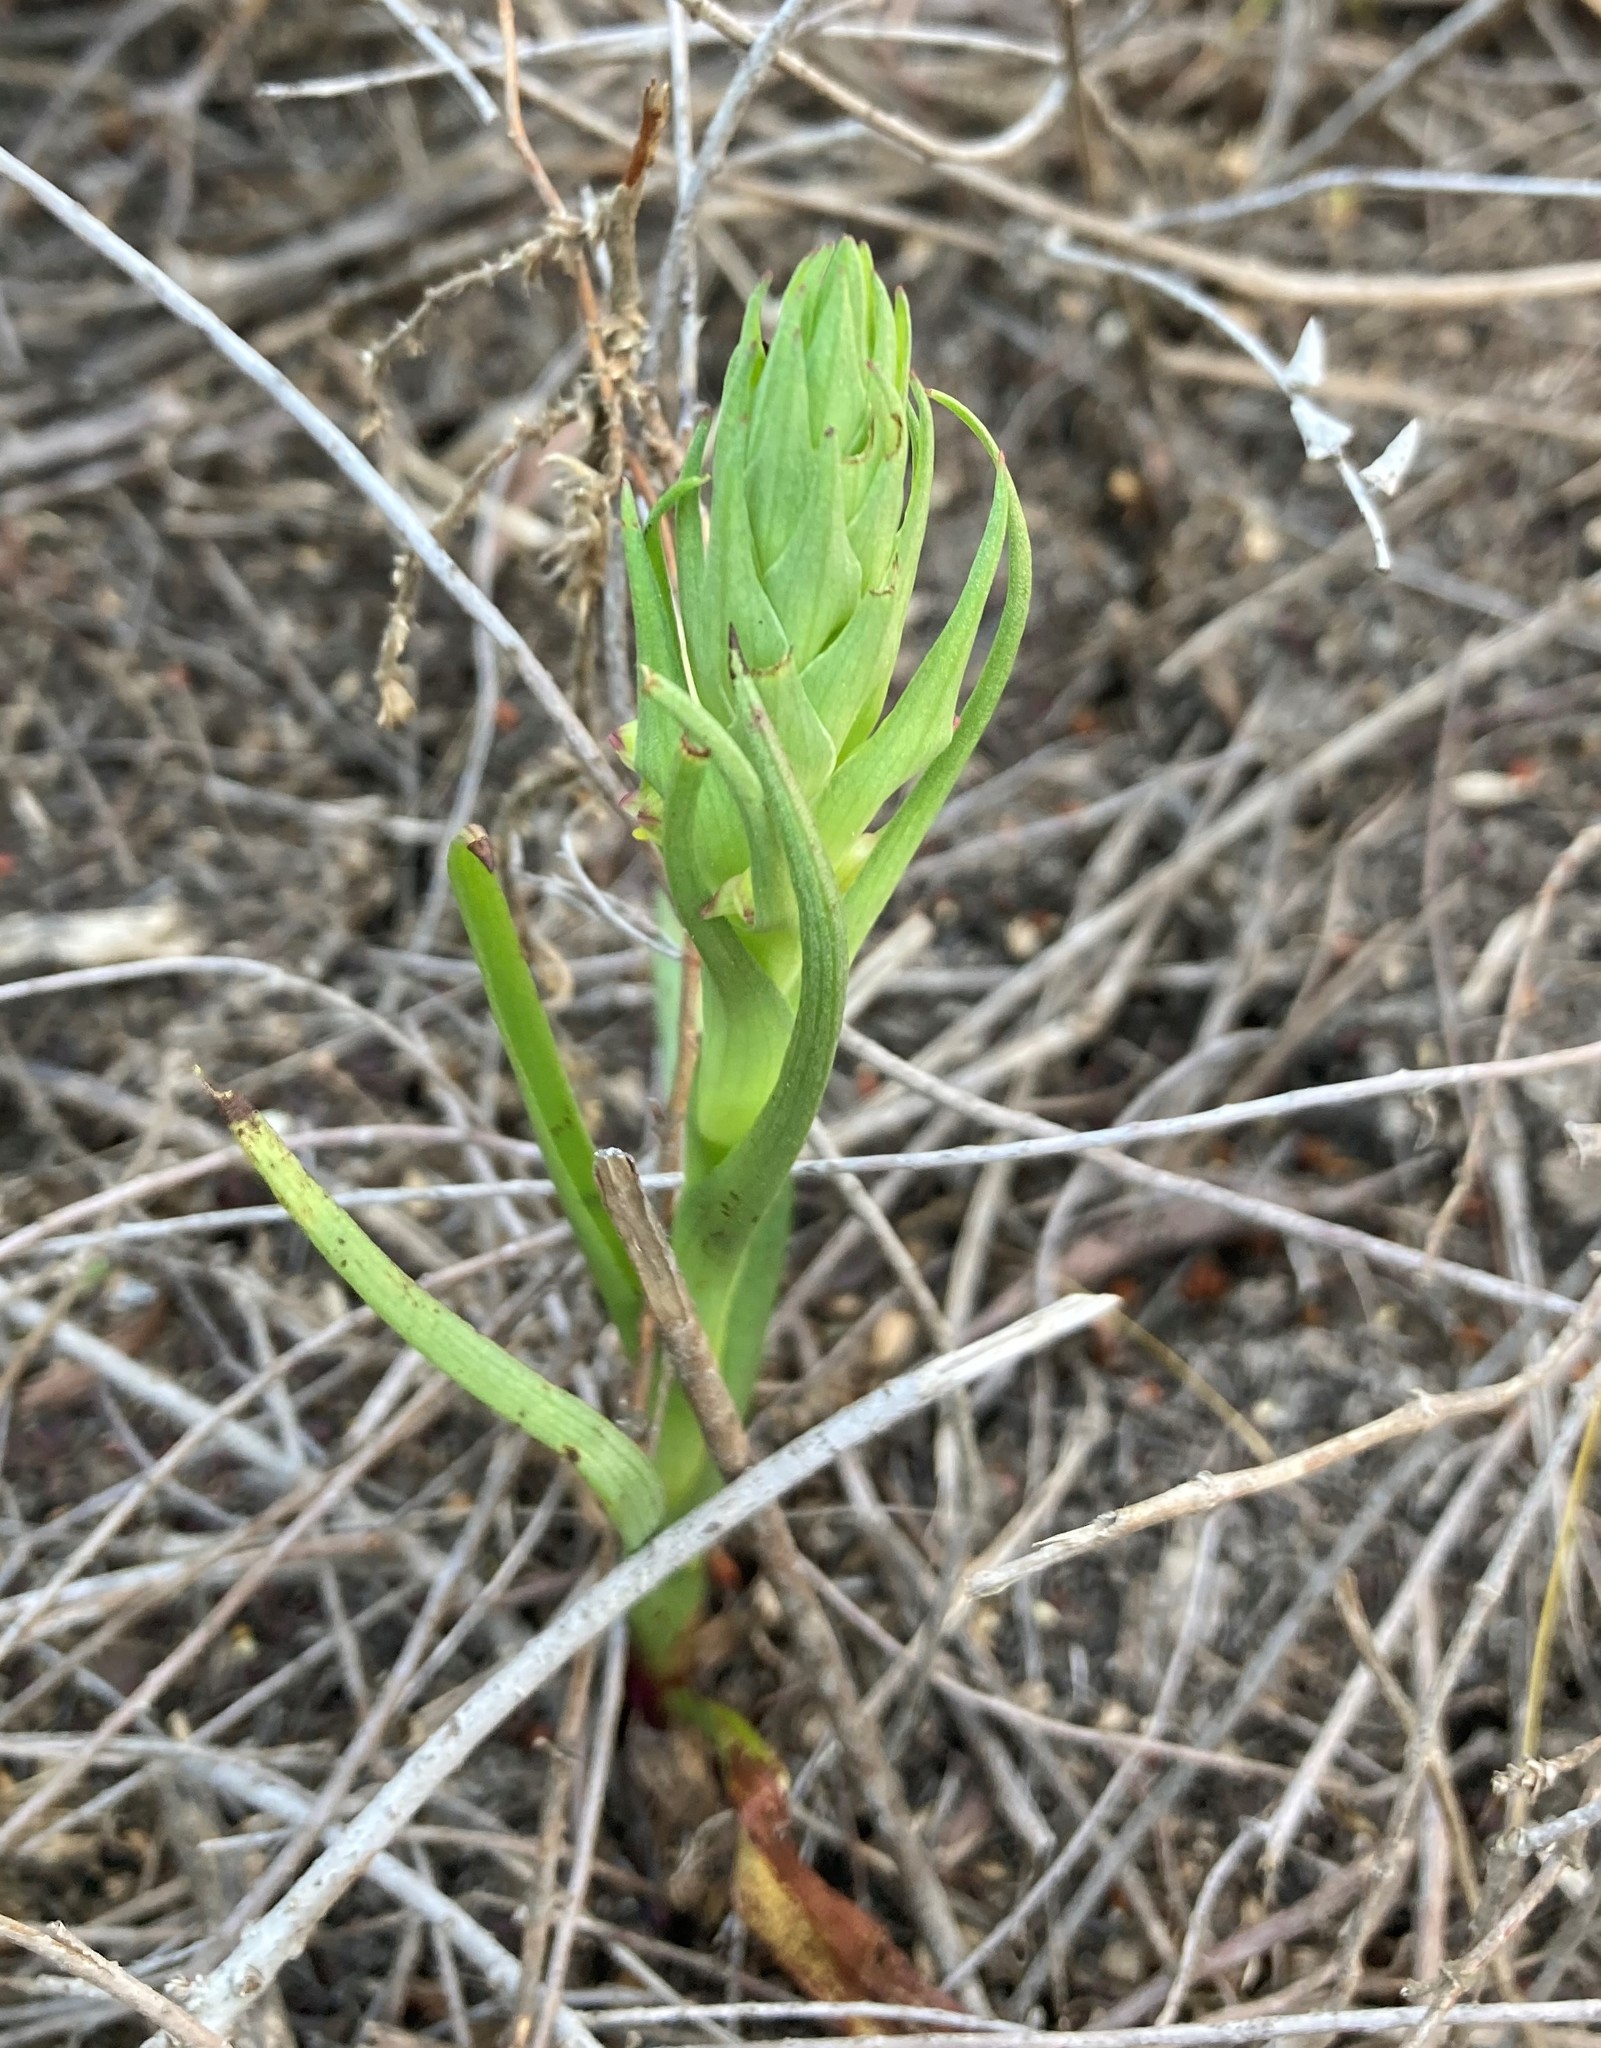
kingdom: Plantae
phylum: Tracheophyta
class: Liliopsida
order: Asparagales
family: Orchidaceae
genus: Disa
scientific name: Disa bracteata
